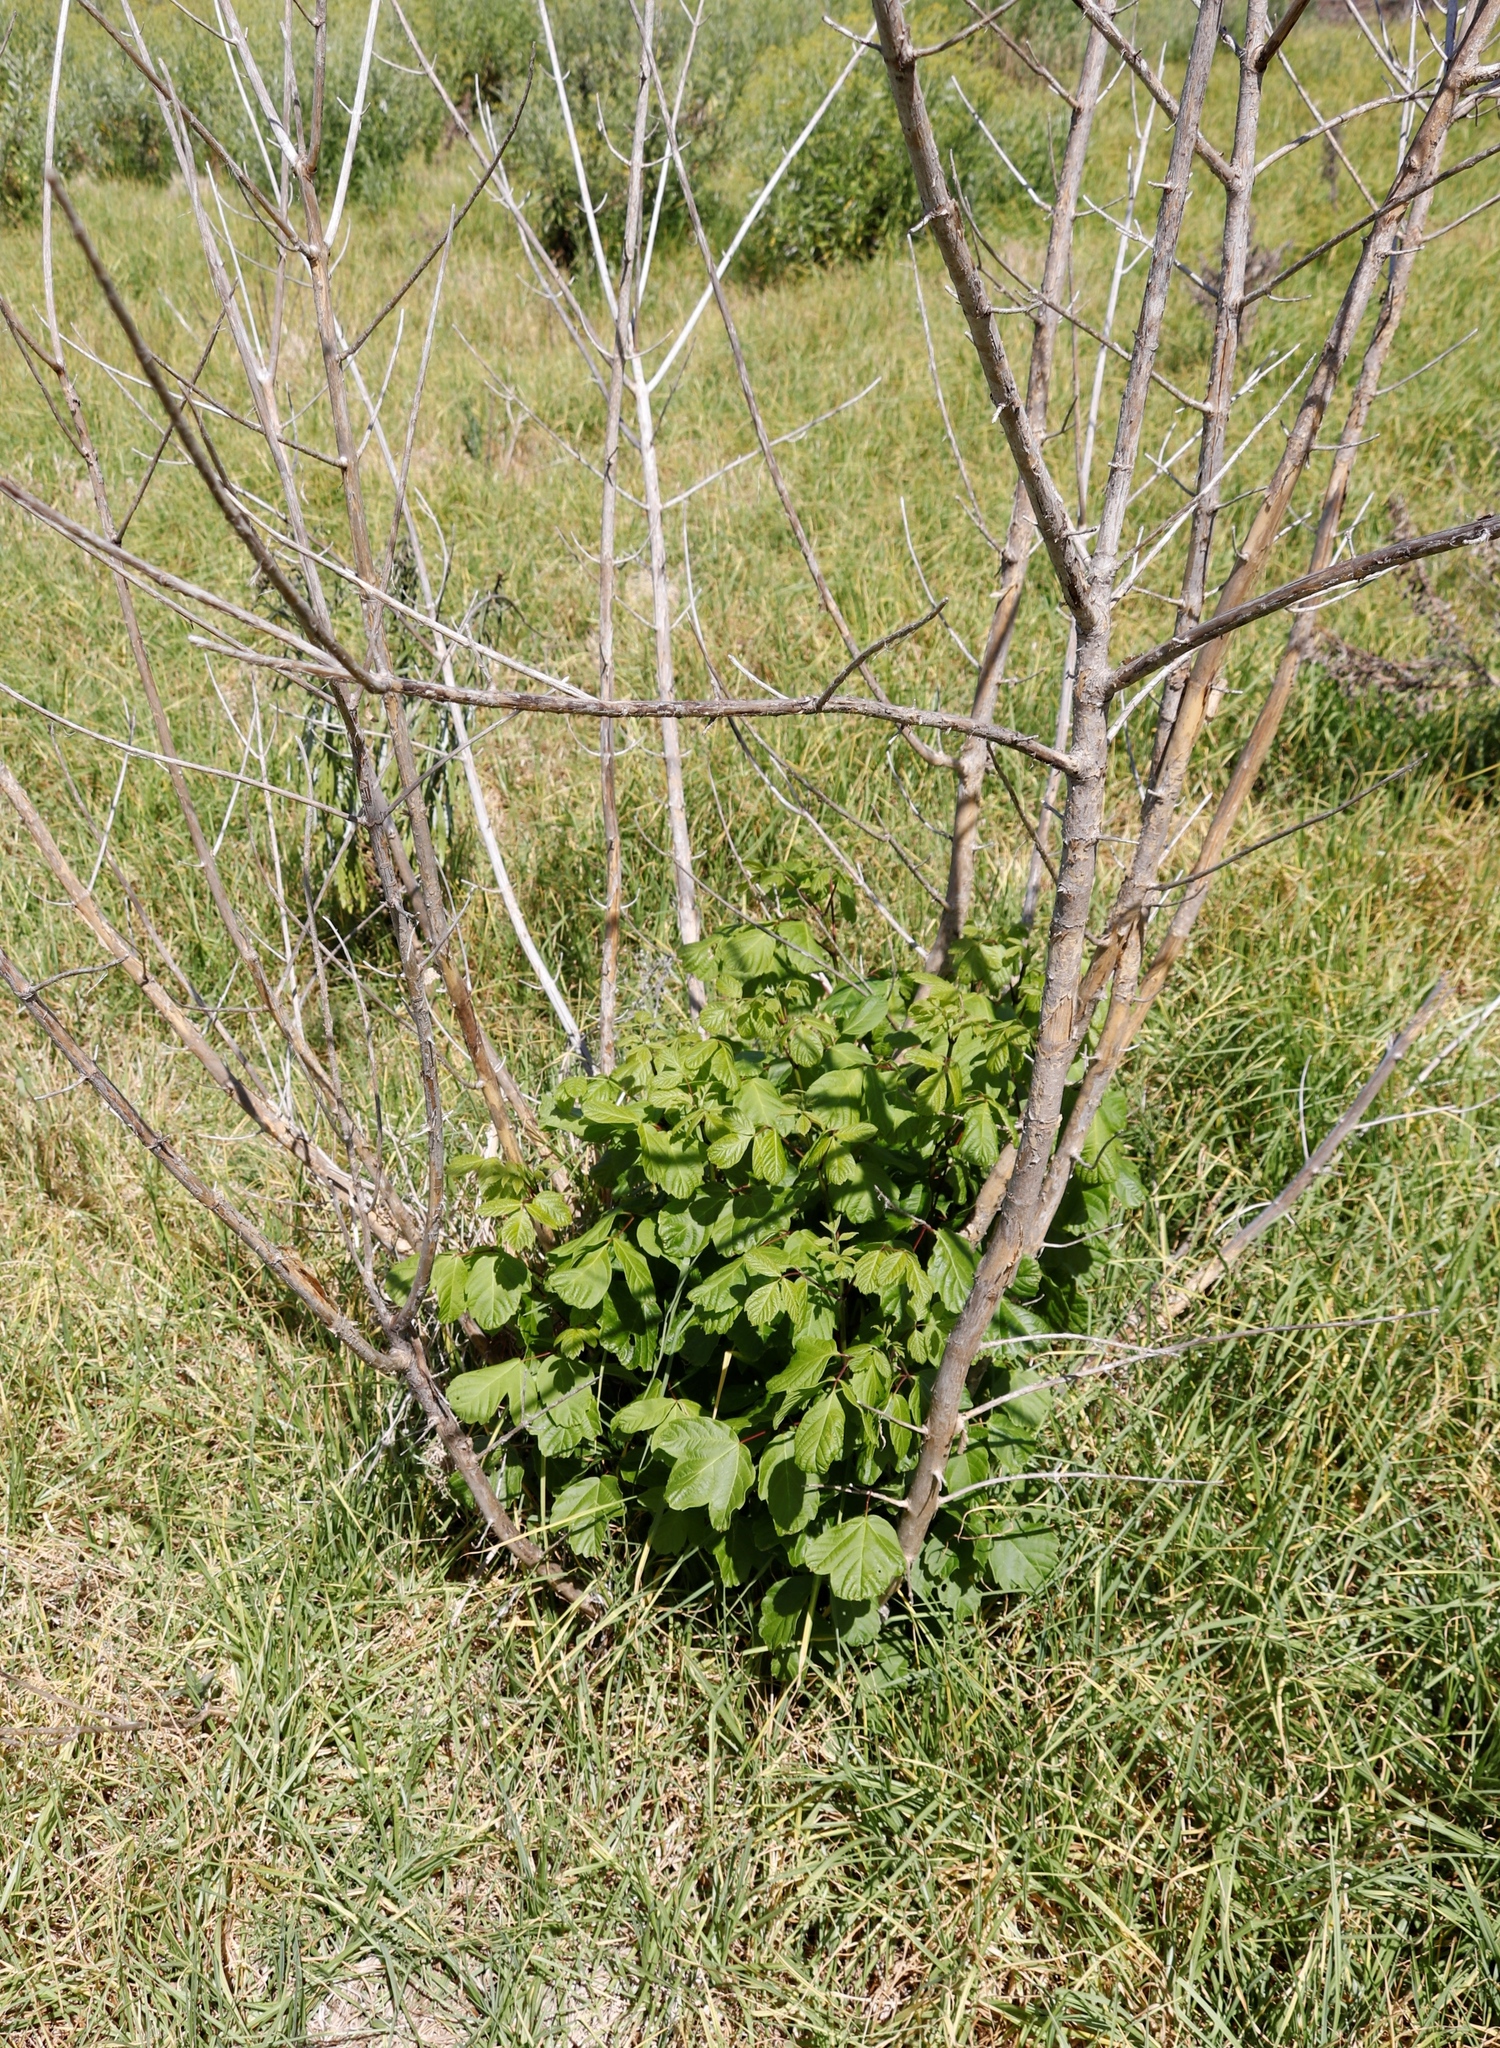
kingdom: Plantae
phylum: Tracheophyta
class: Magnoliopsida
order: Sapindales
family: Sapindaceae
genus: Acer
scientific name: Acer negundo
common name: Ashleaf maple
